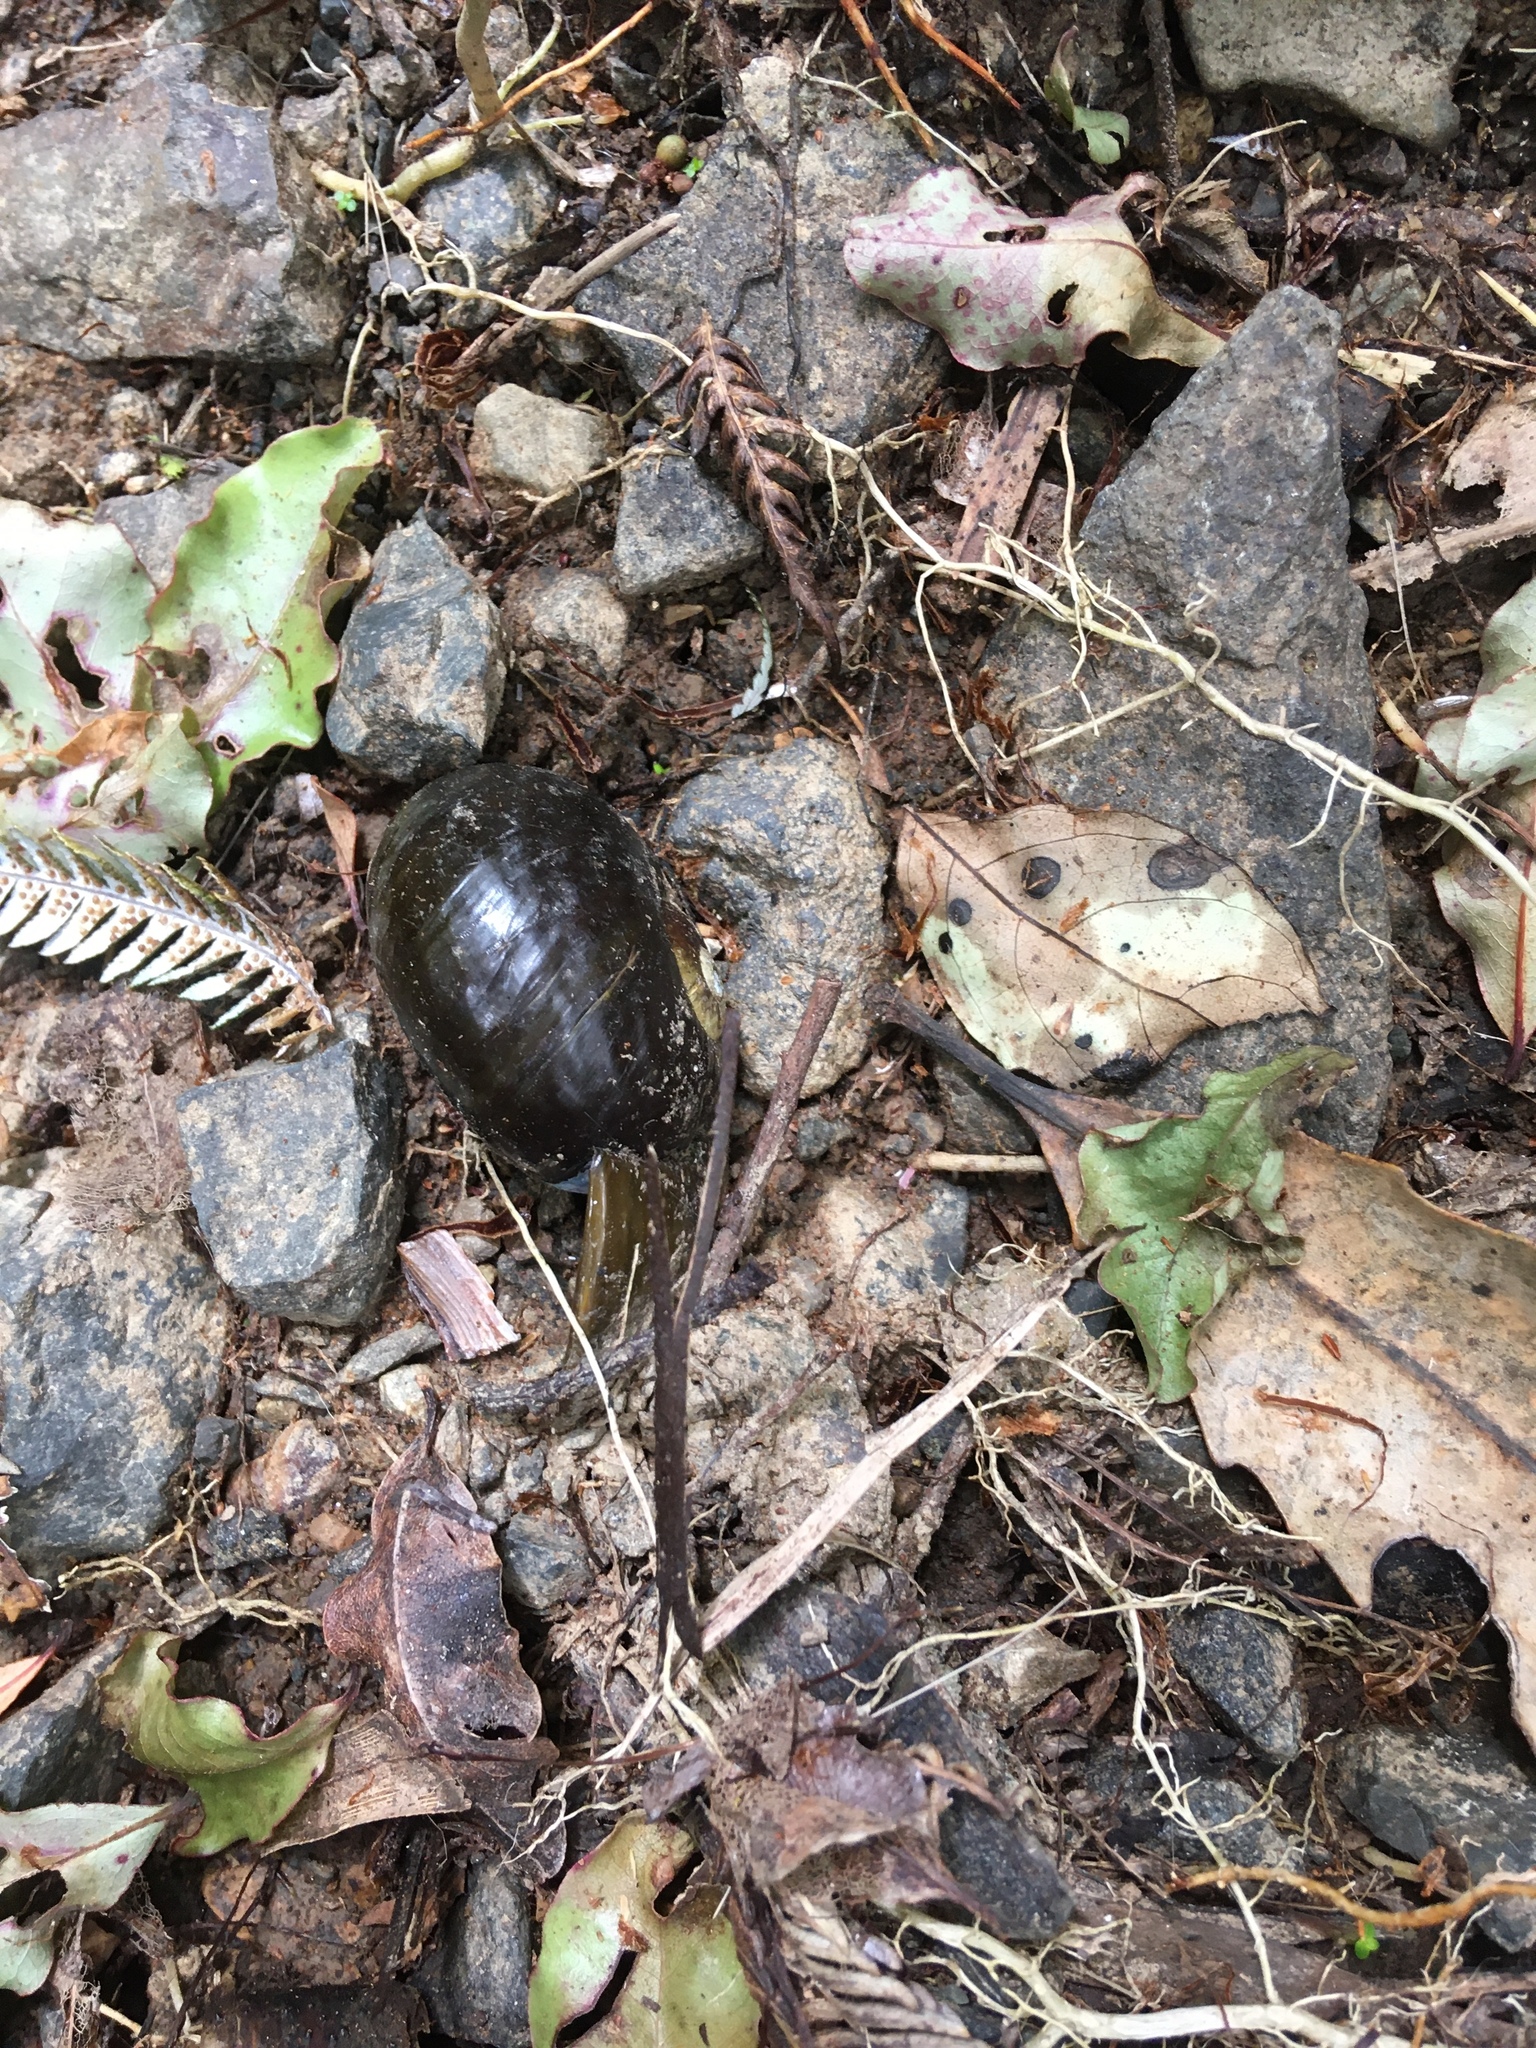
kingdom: Animalia
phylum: Mollusca
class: Gastropoda
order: Stylommatophora
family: Rhytididae
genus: Paryphanta
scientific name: Paryphanta busbyi
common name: Kauri snail
